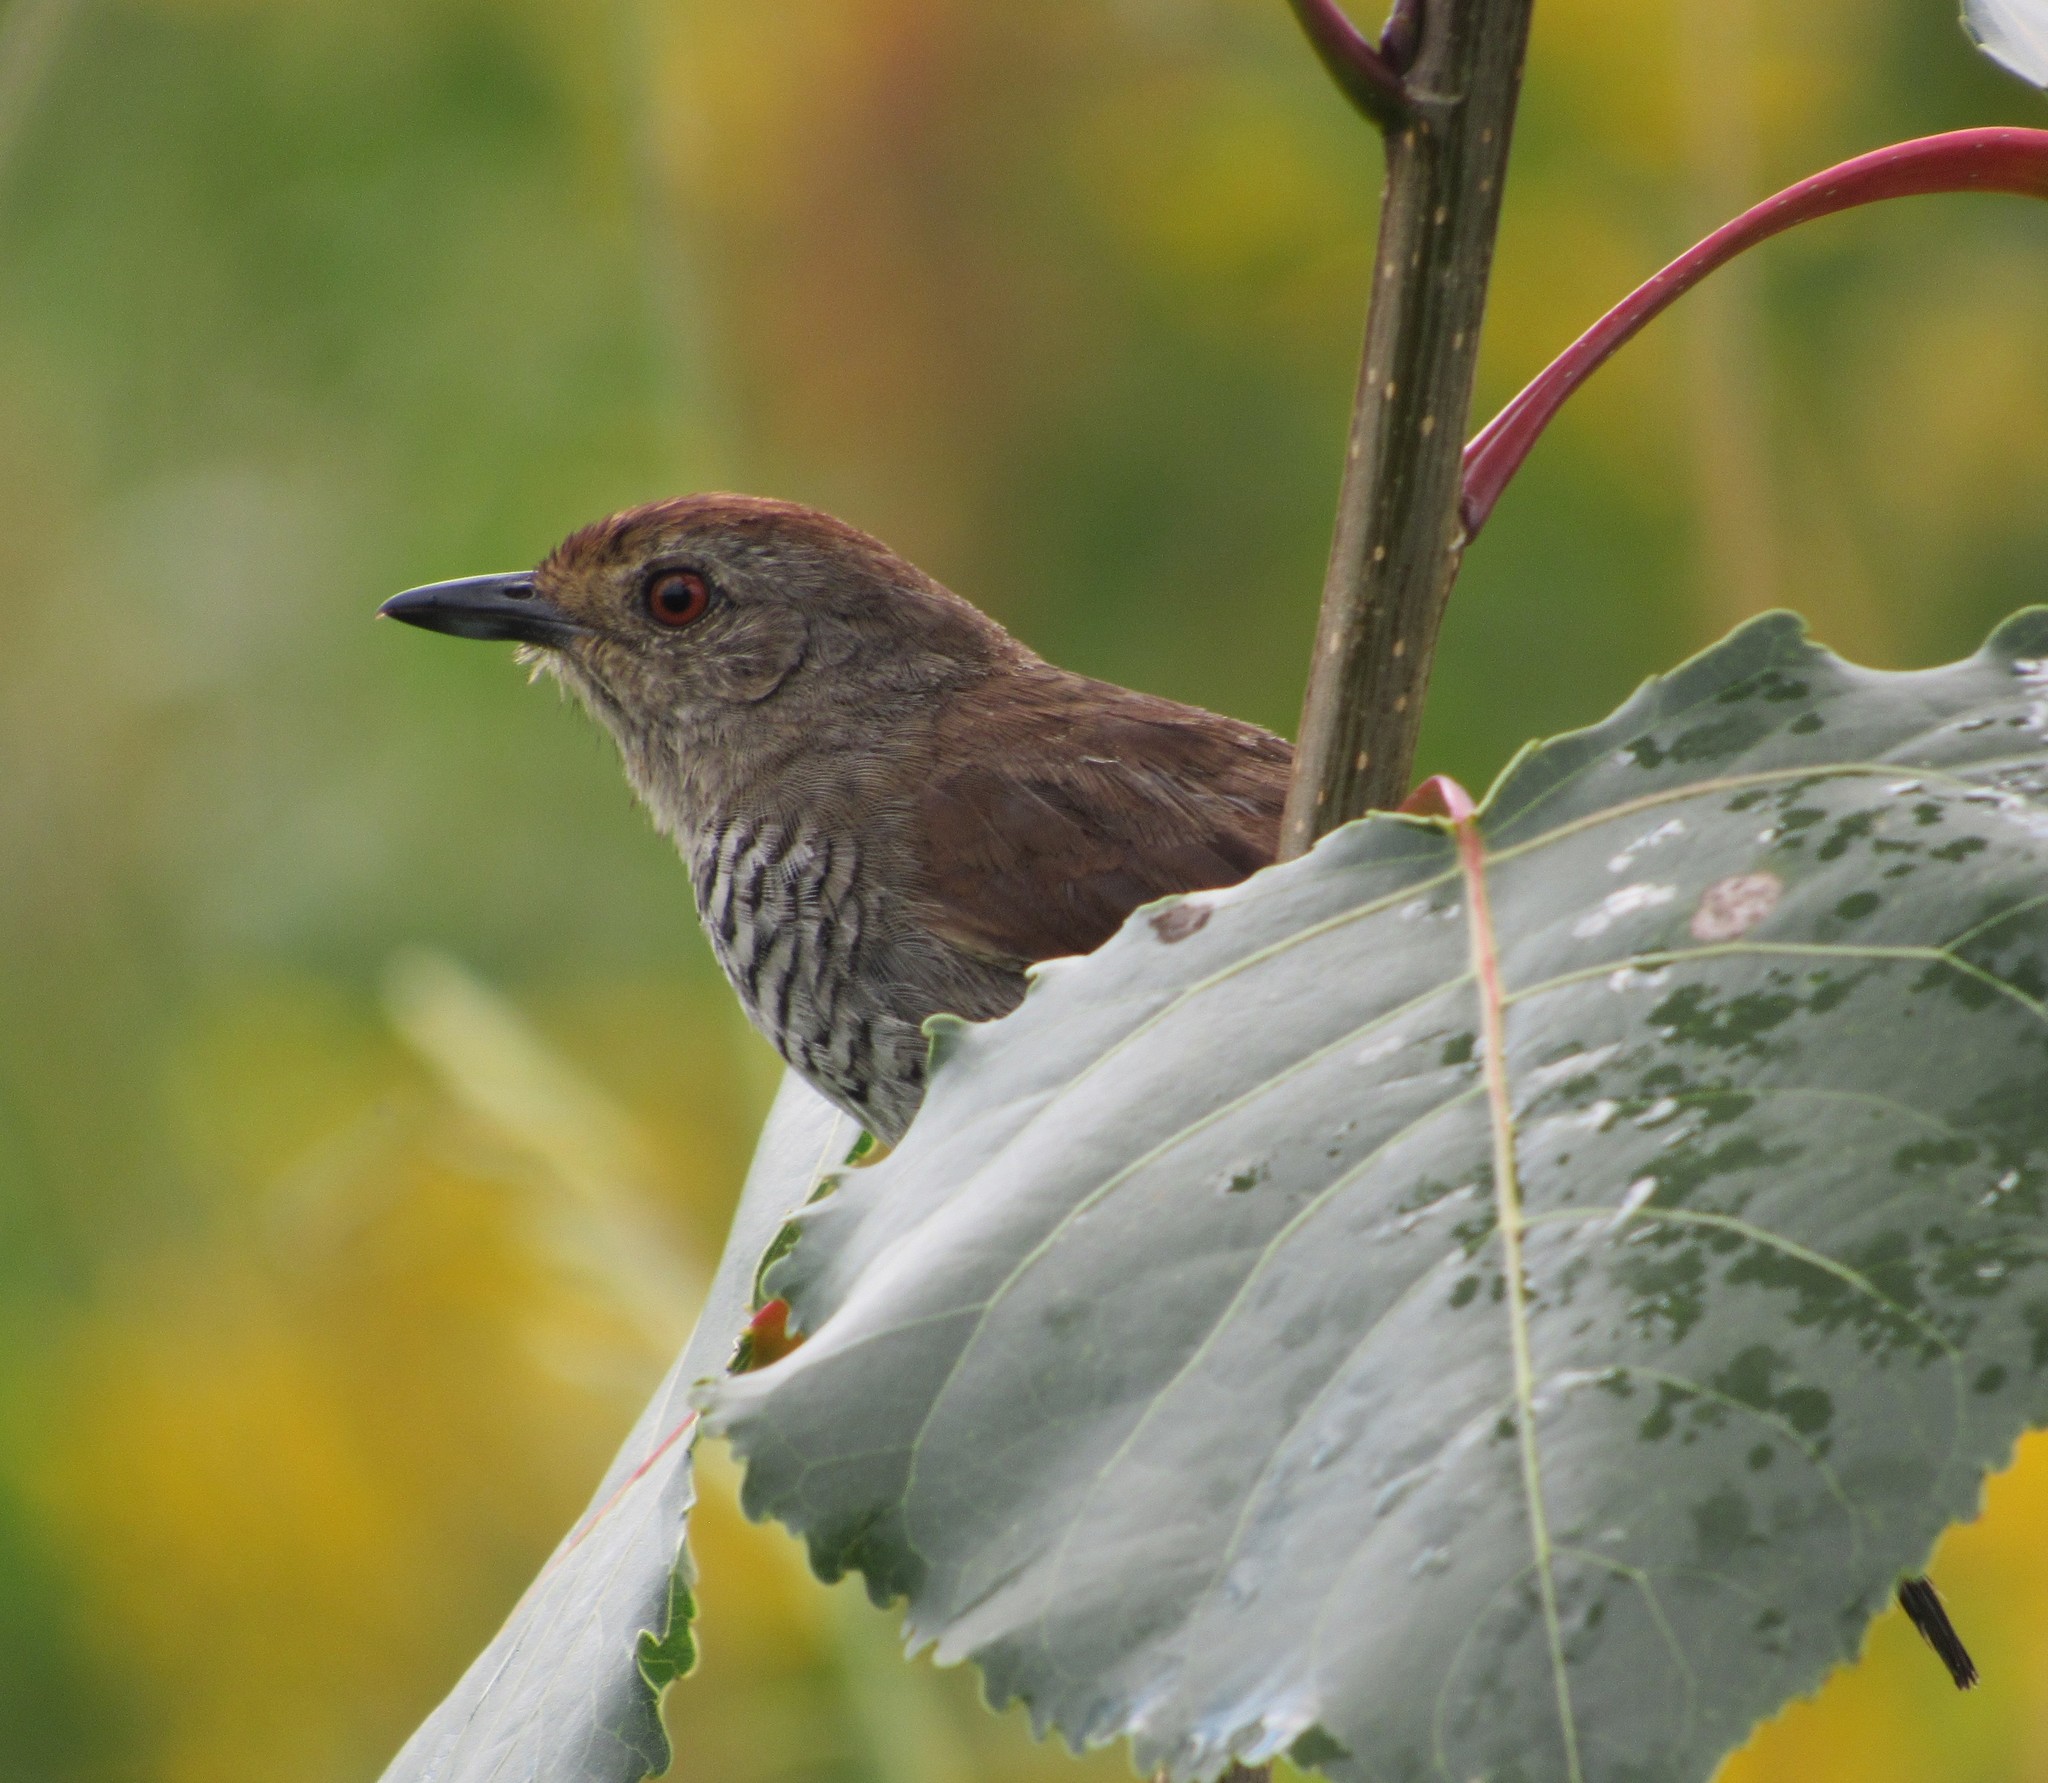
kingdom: Animalia
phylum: Chordata
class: Aves
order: Passeriformes
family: Thamnophilidae
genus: Thamnophilus
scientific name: Thamnophilus ruficapillus
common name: Rufous-capped antshrike
